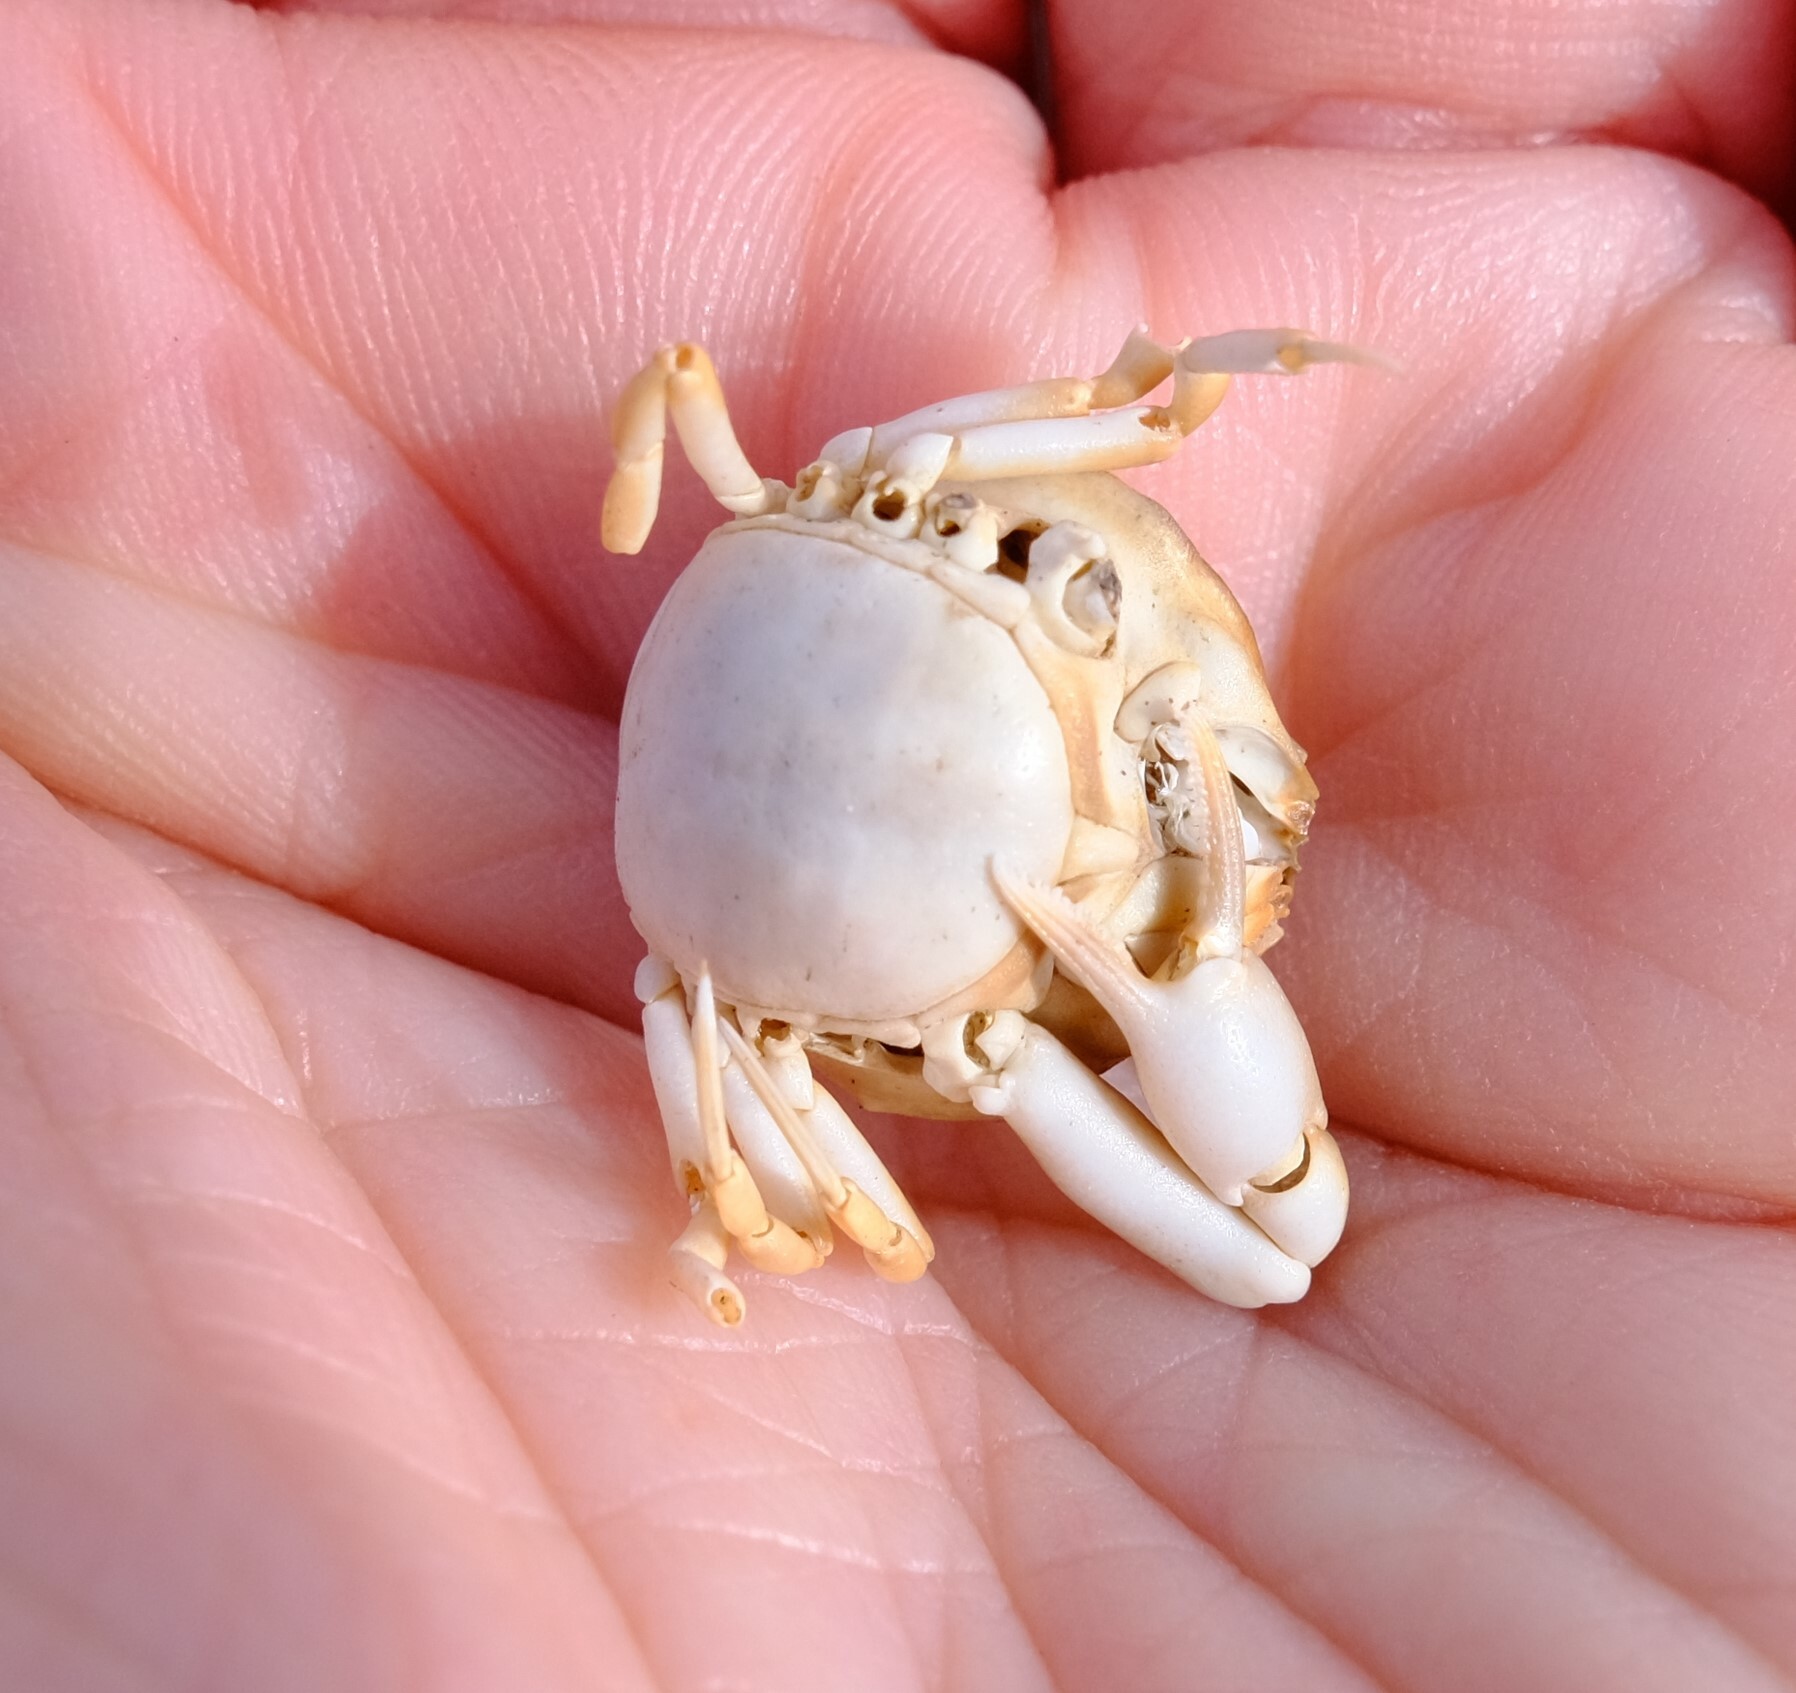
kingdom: Animalia
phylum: Arthropoda
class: Malacostraca
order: Decapoda
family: Leucosiidae
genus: Bellidilia
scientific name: Bellidilia laevis
